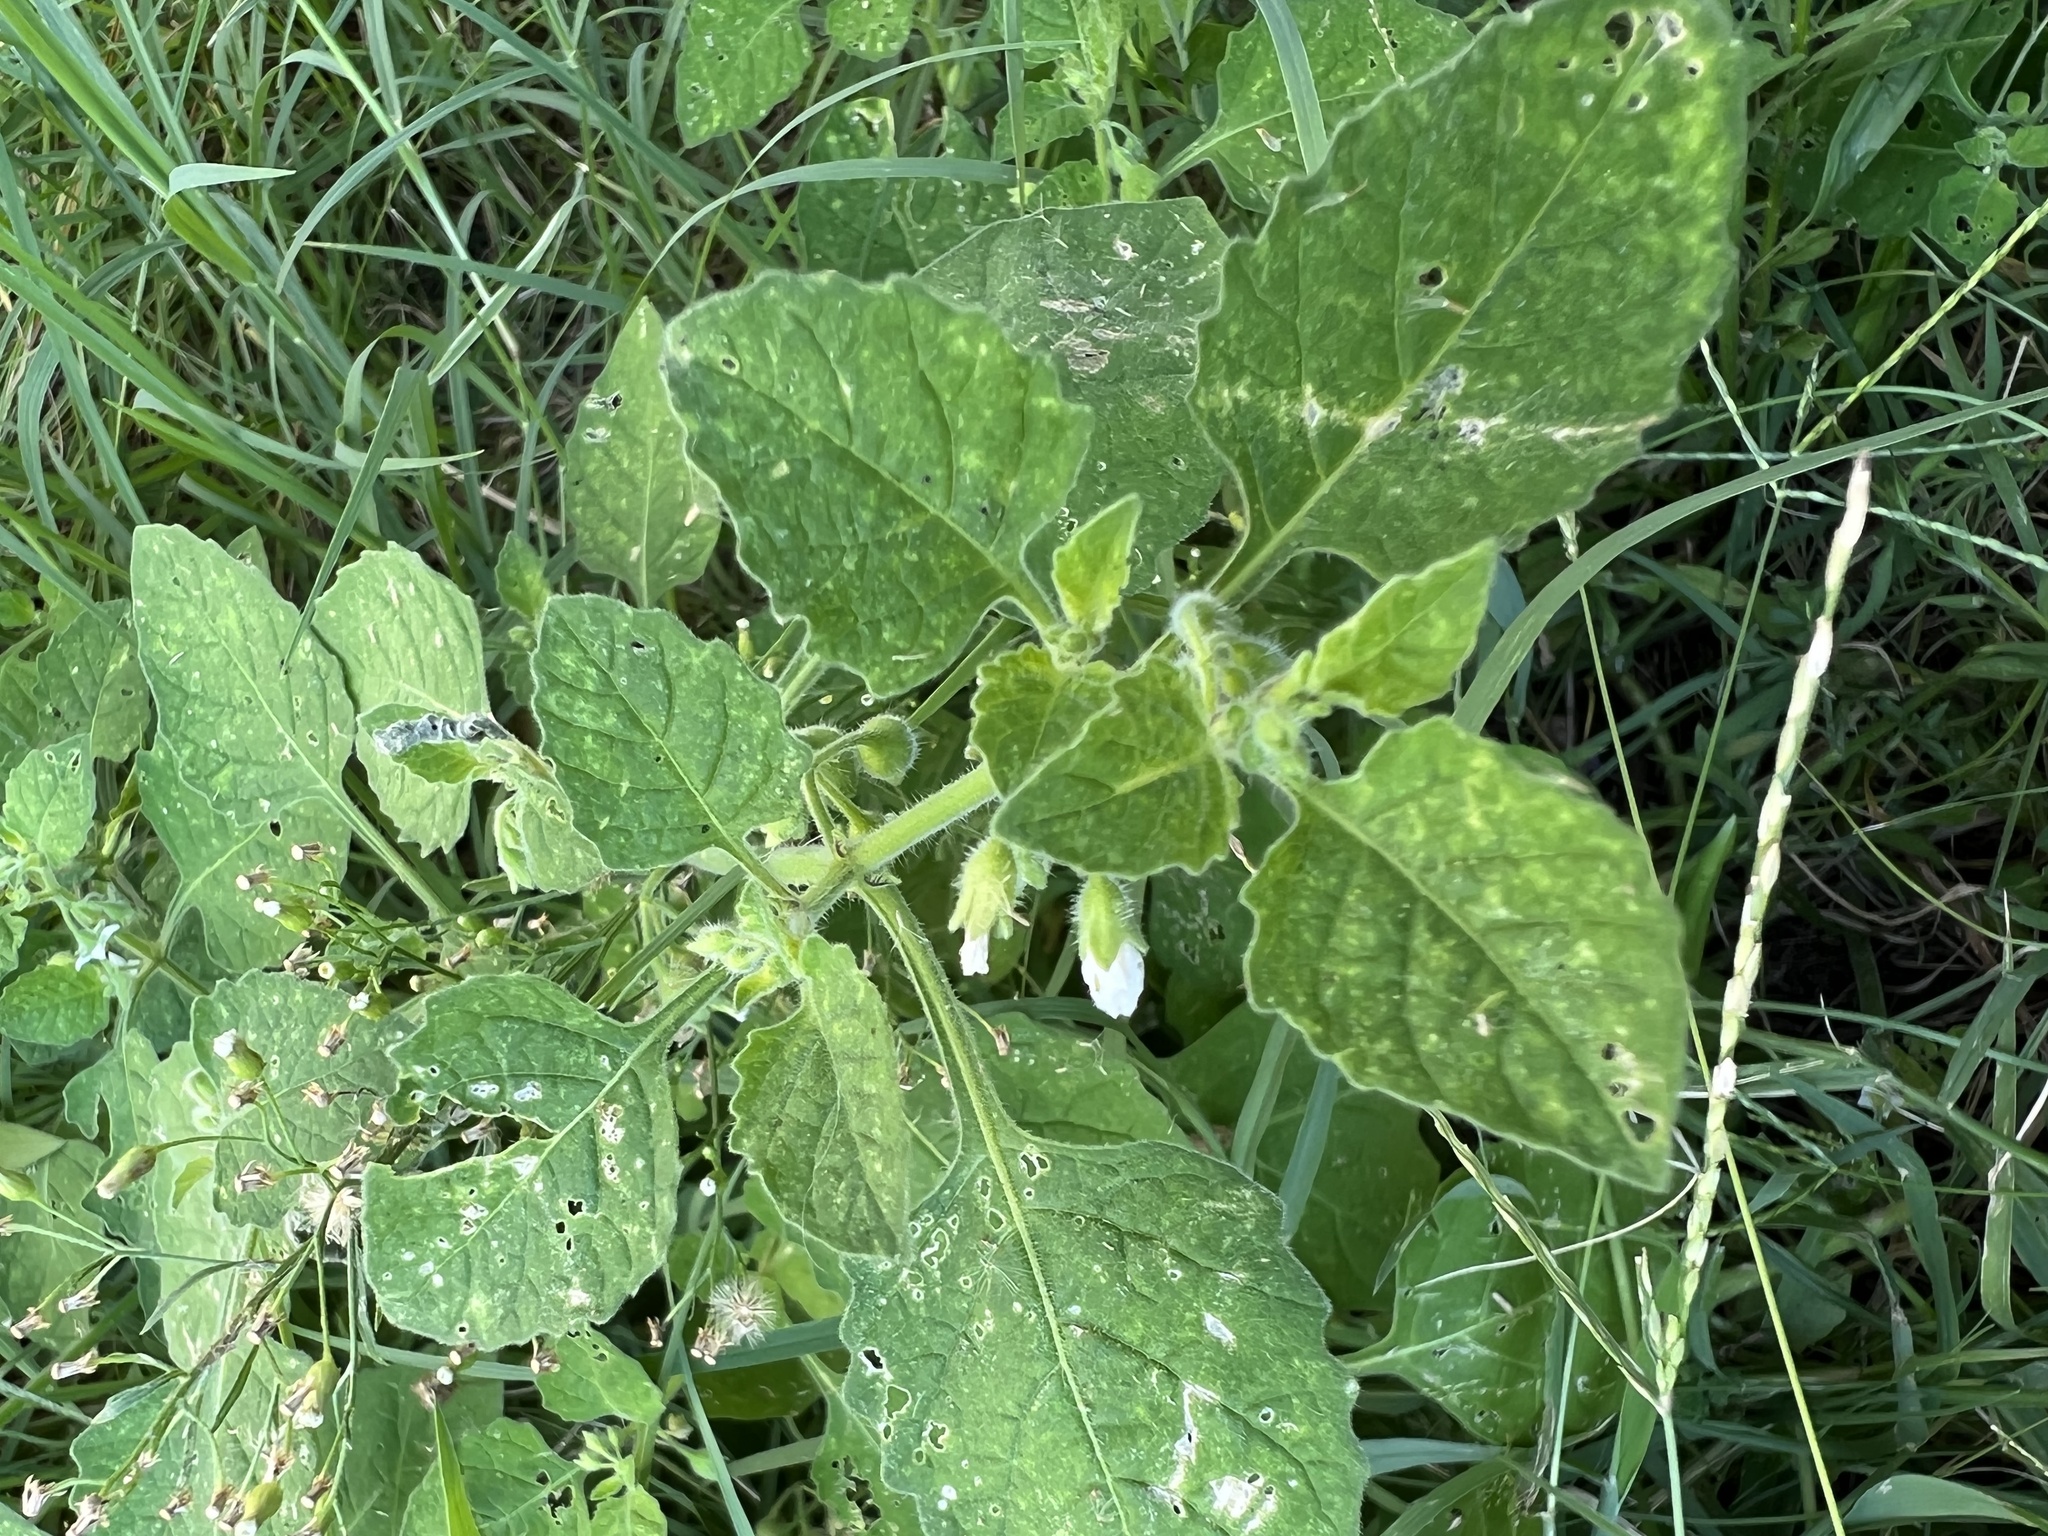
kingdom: Plantae
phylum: Tracheophyta
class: Magnoliopsida
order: Solanales
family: Solanaceae
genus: Solanum
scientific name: Solanum sarrachoides
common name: Leafy-fruited nightshade
